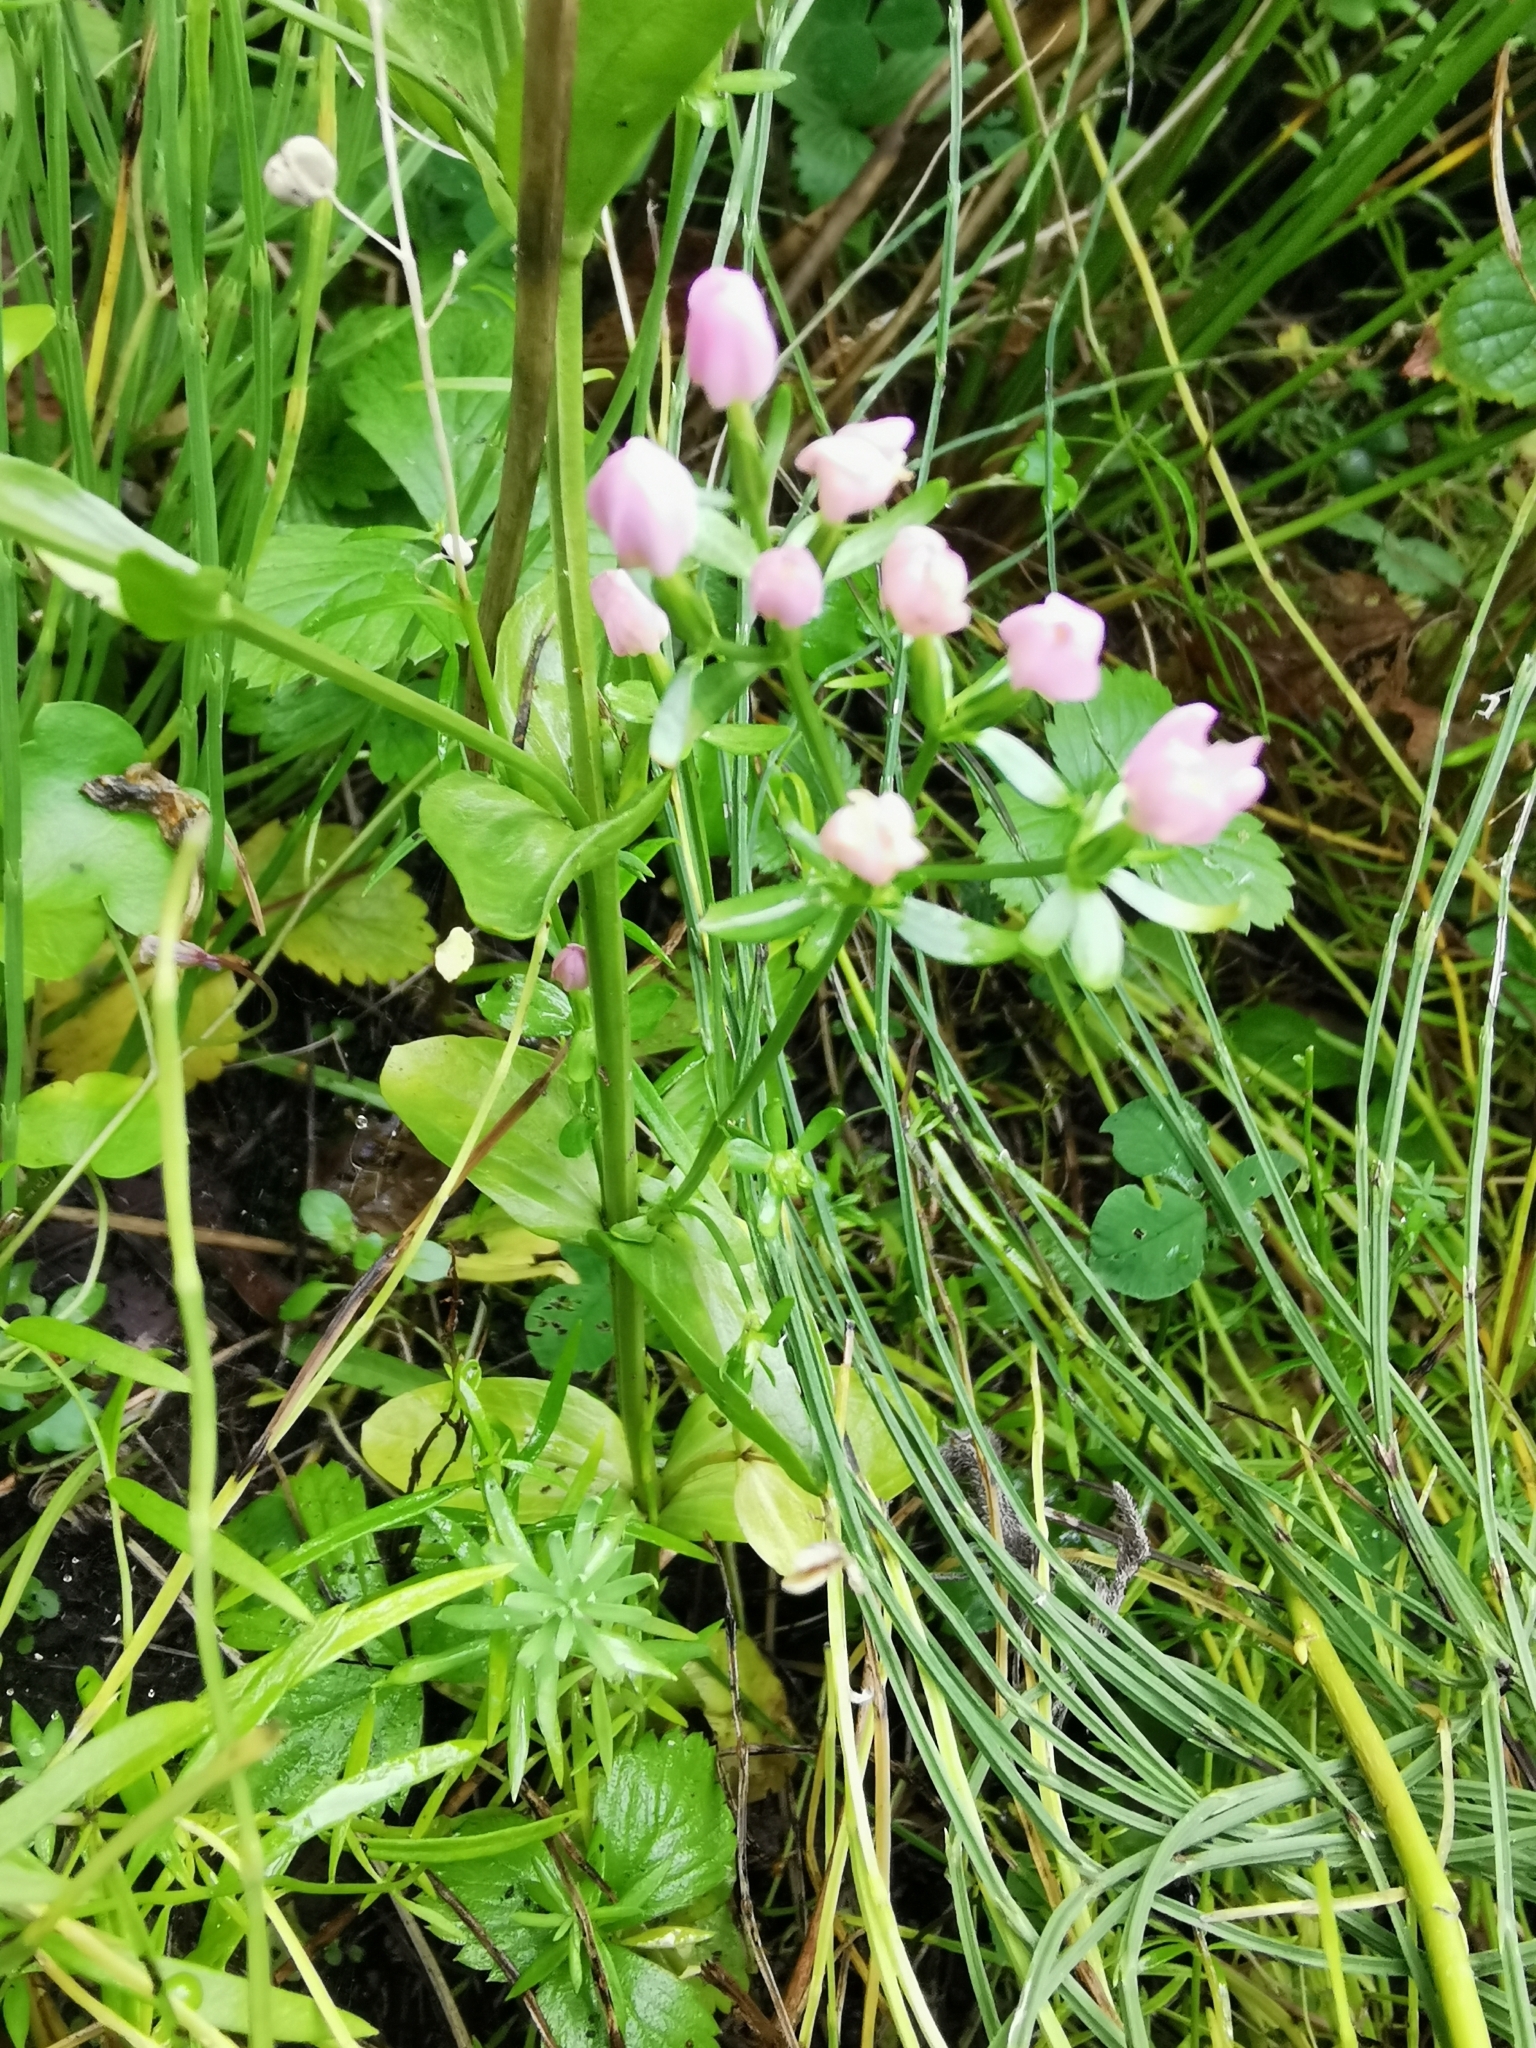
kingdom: Plantae
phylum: Tracheophyta
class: Magnoliopsida
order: Gentianales
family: Gentianaceae
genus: Centaurium
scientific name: Centaurium erythraea
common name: Common centaury
